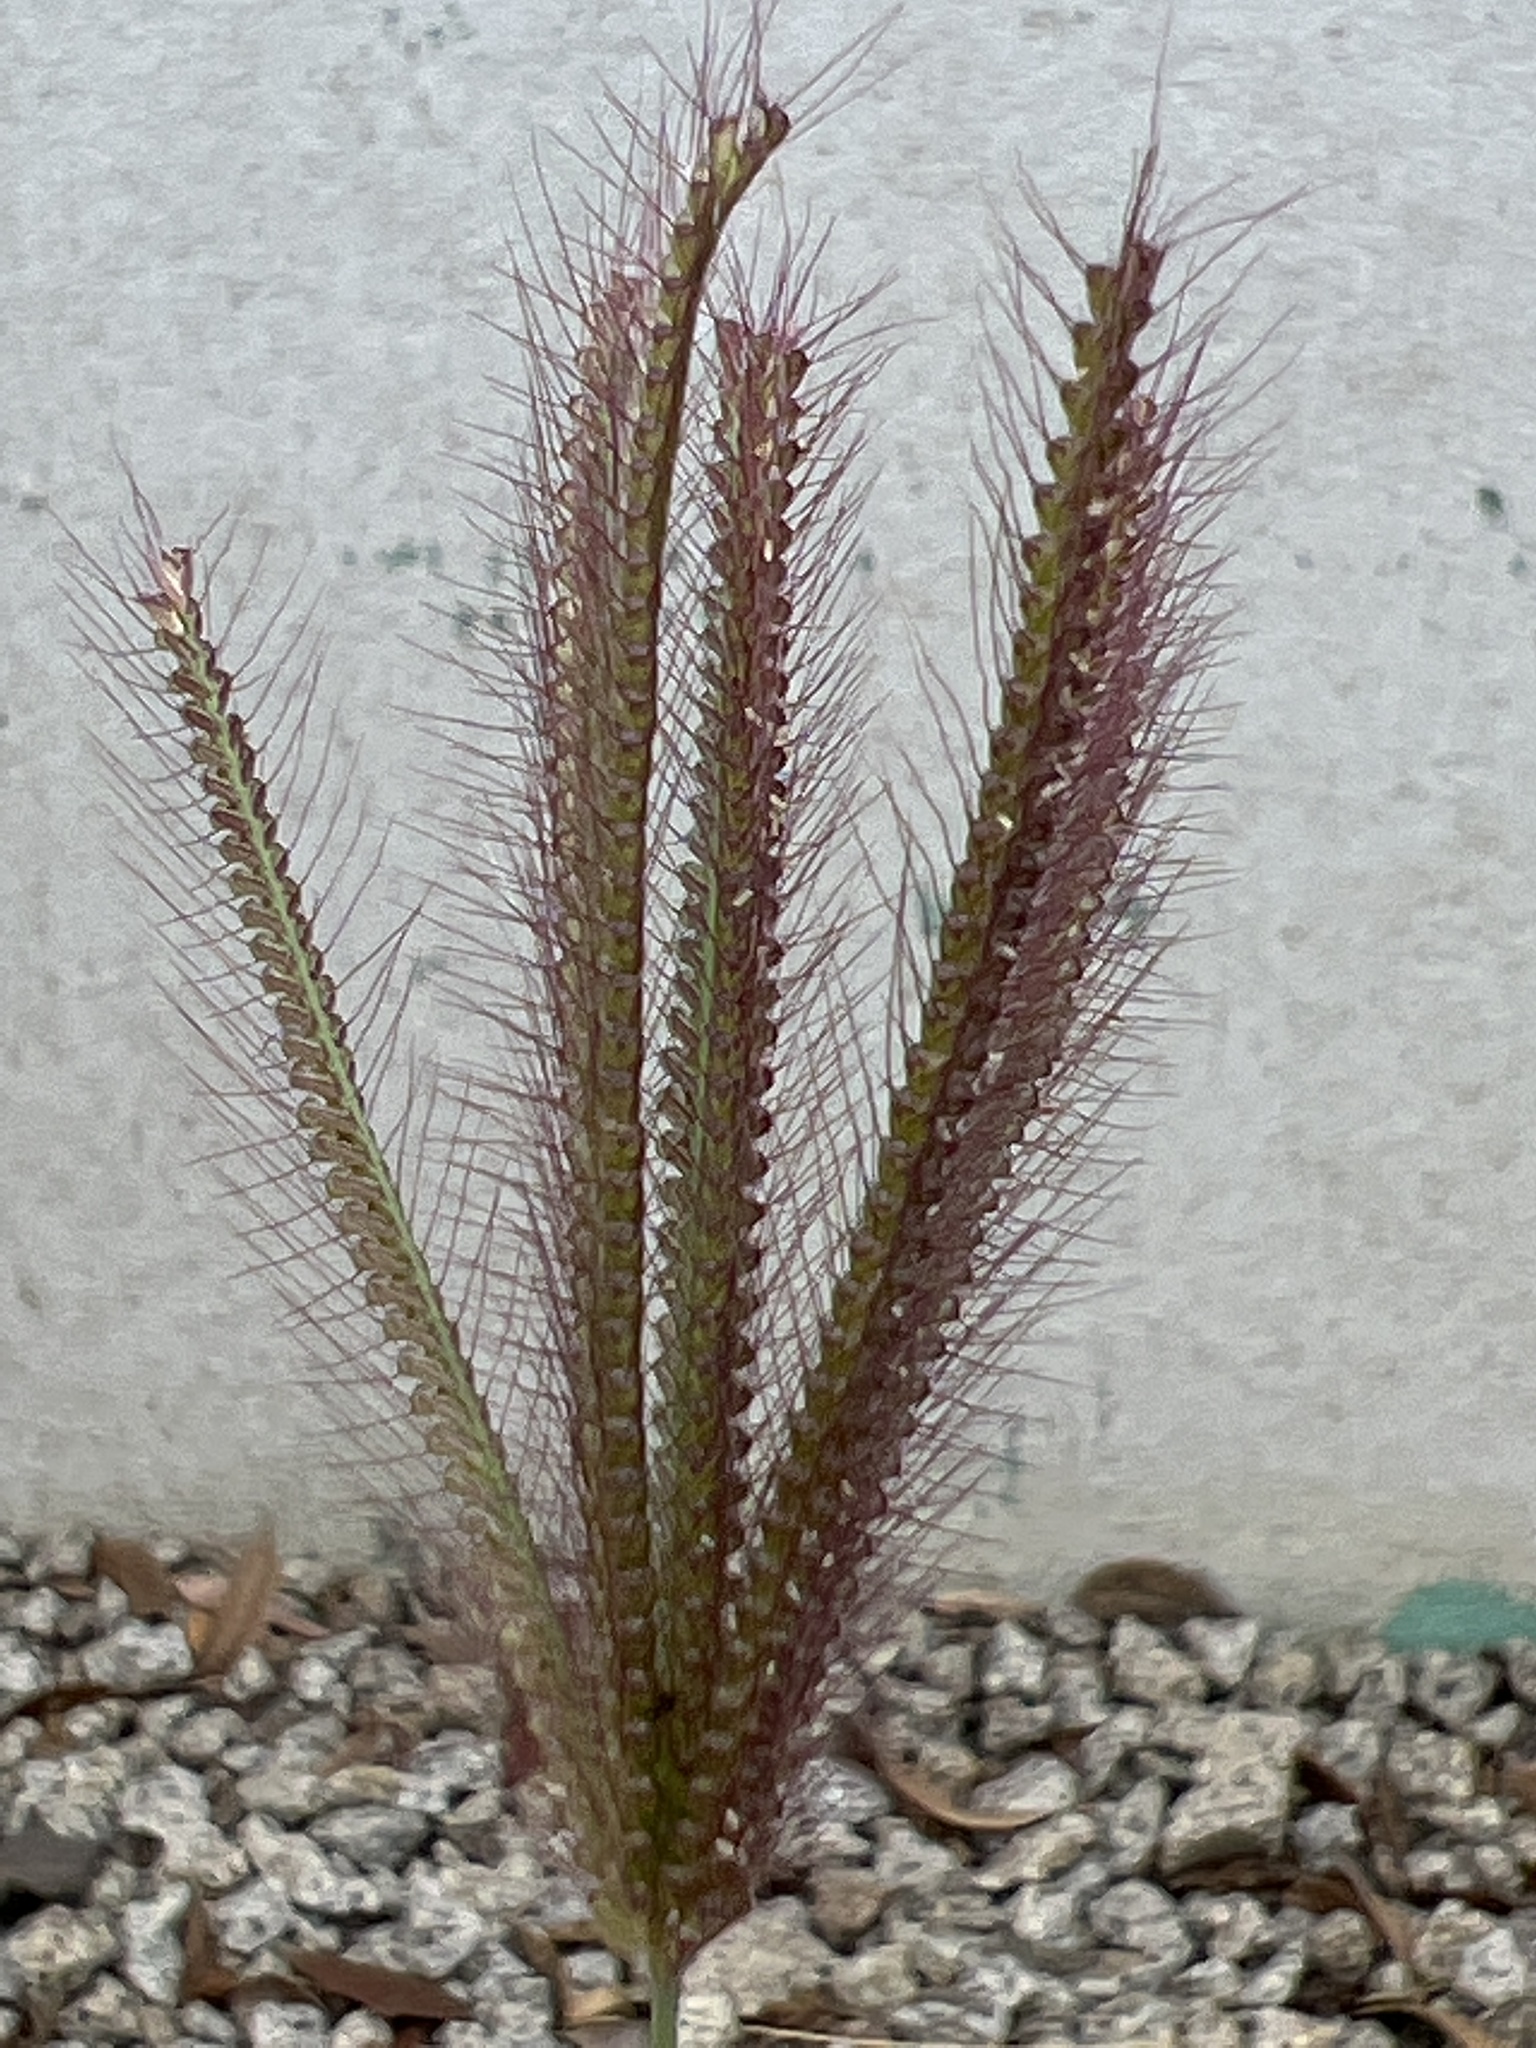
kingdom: Plantae
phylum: Tracheophyta
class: Liliopsida
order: Poales
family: Poaceae
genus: Chloris
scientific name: Chloris barbata
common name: Swollen fingergrass
